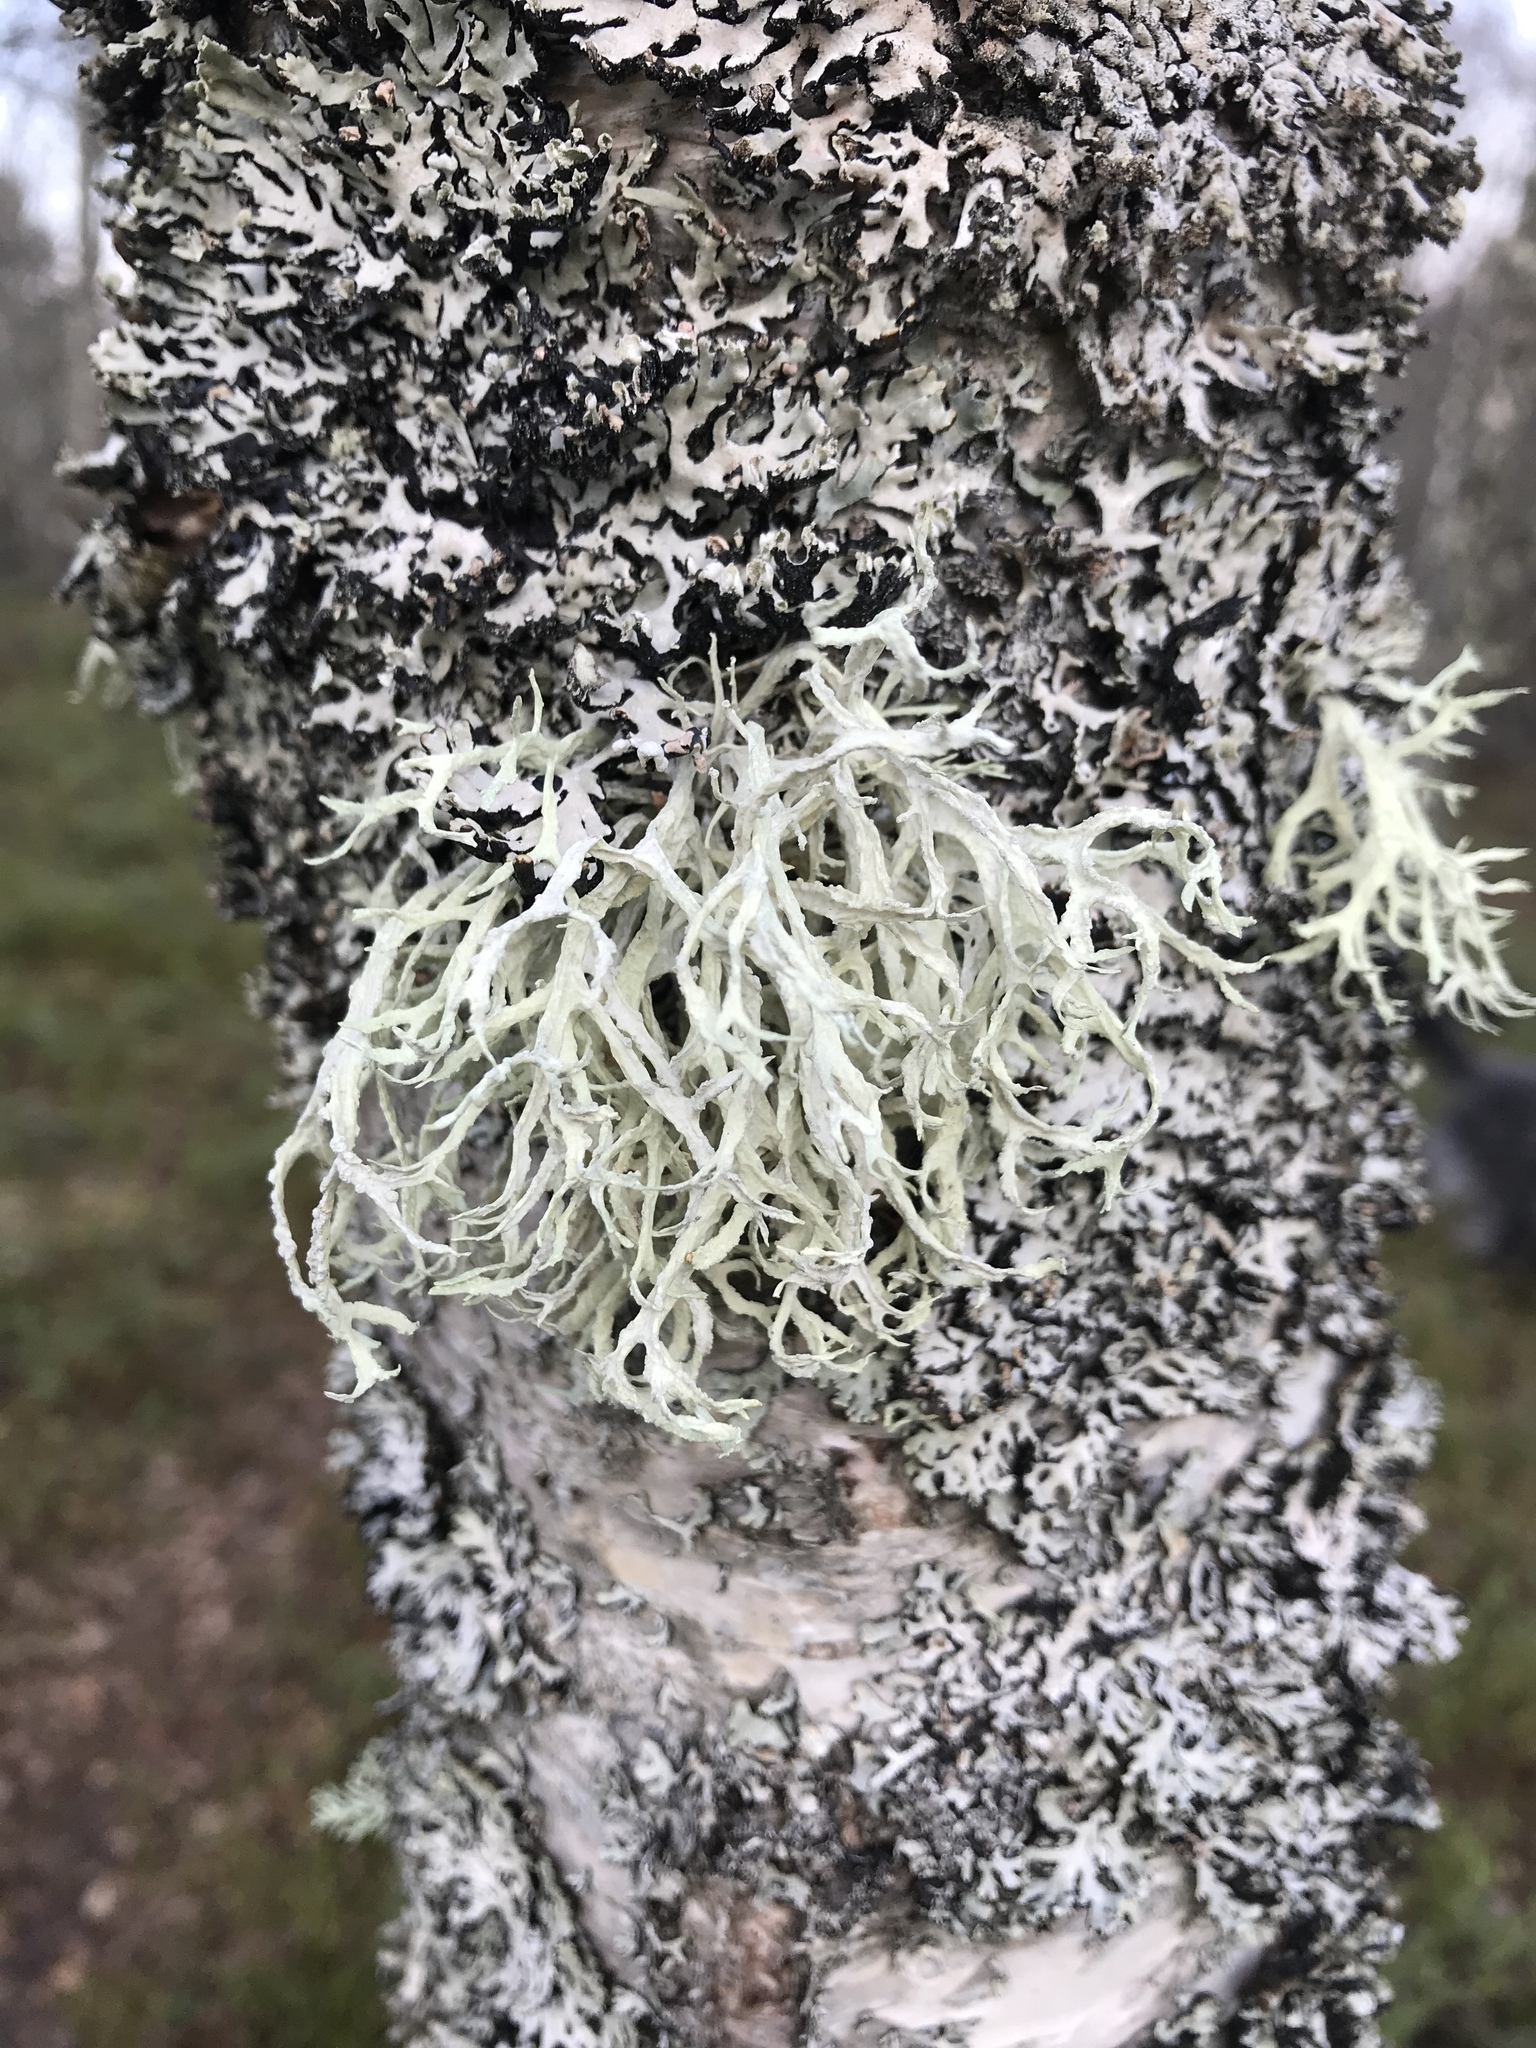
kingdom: Fungi
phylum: Ascomycota
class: Lecanoromycetes
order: Lecanorales
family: Parmeliaceae
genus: Evernia
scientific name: Evernia prunastri
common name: Oak moss
